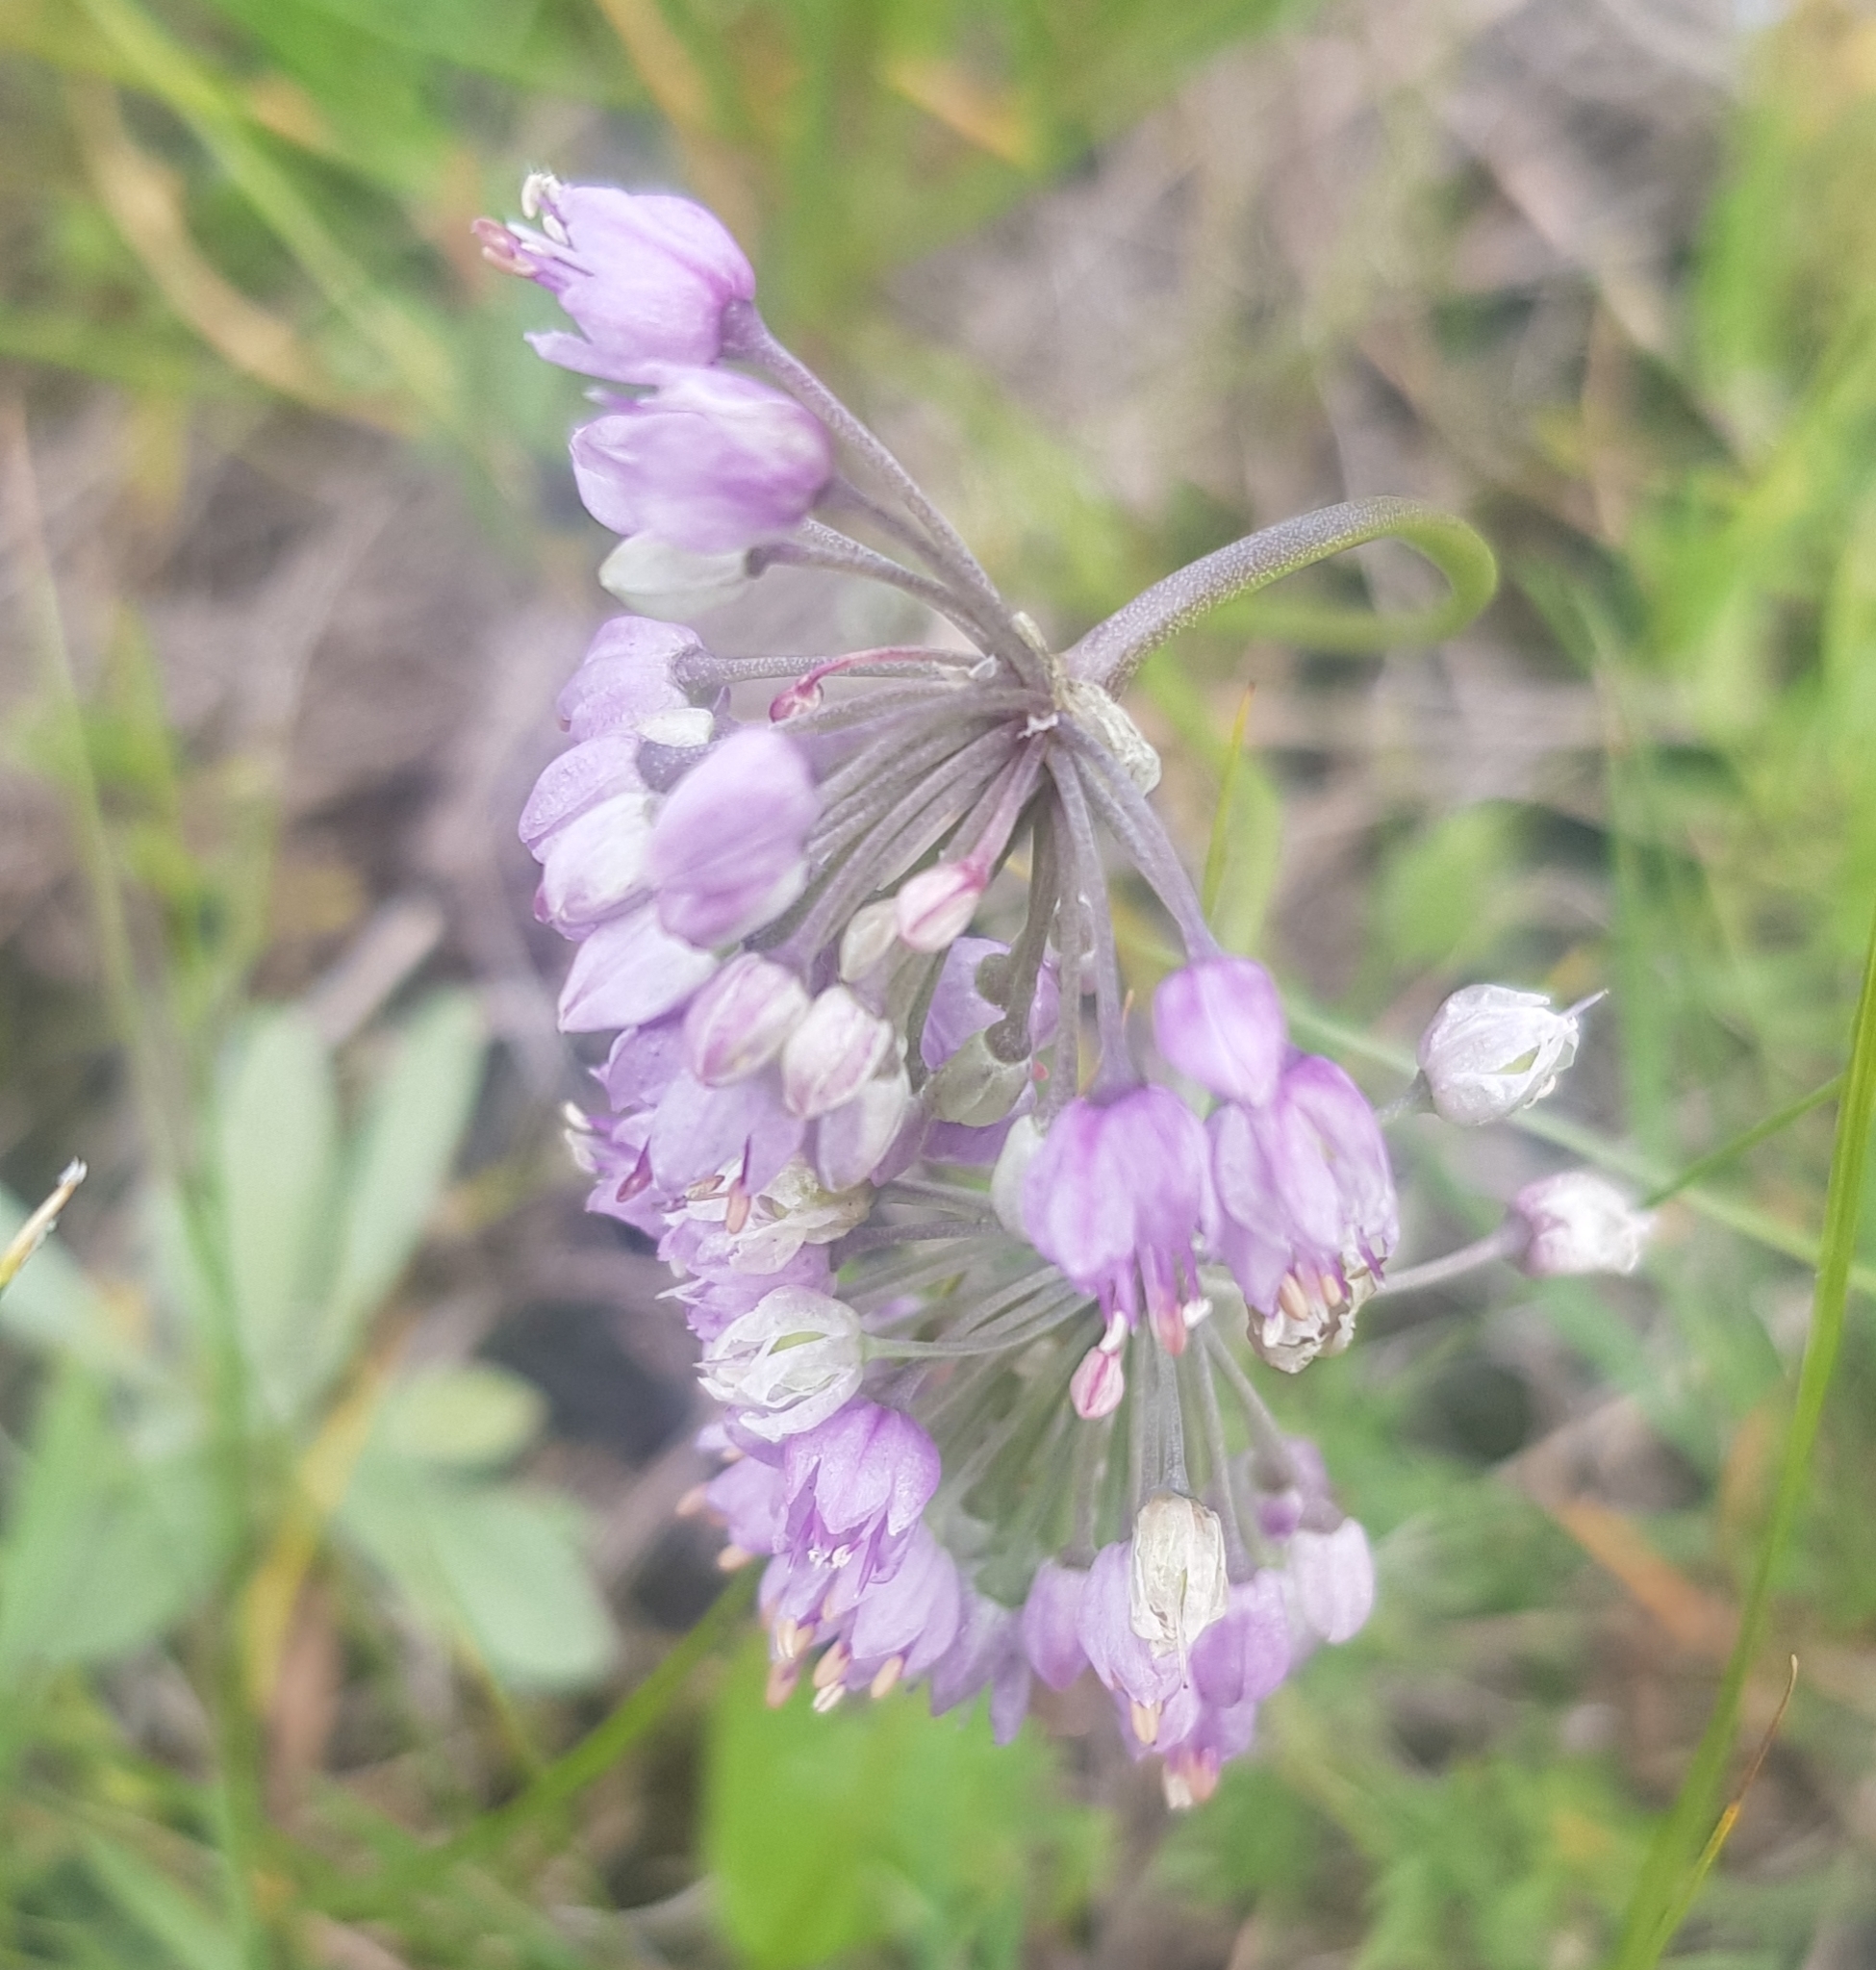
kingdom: Plantae
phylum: Tracheophyta
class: Liliopsida
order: Asparagales
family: Amaryllidaceae
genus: Allium
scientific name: Allium senescens
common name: German garlic
